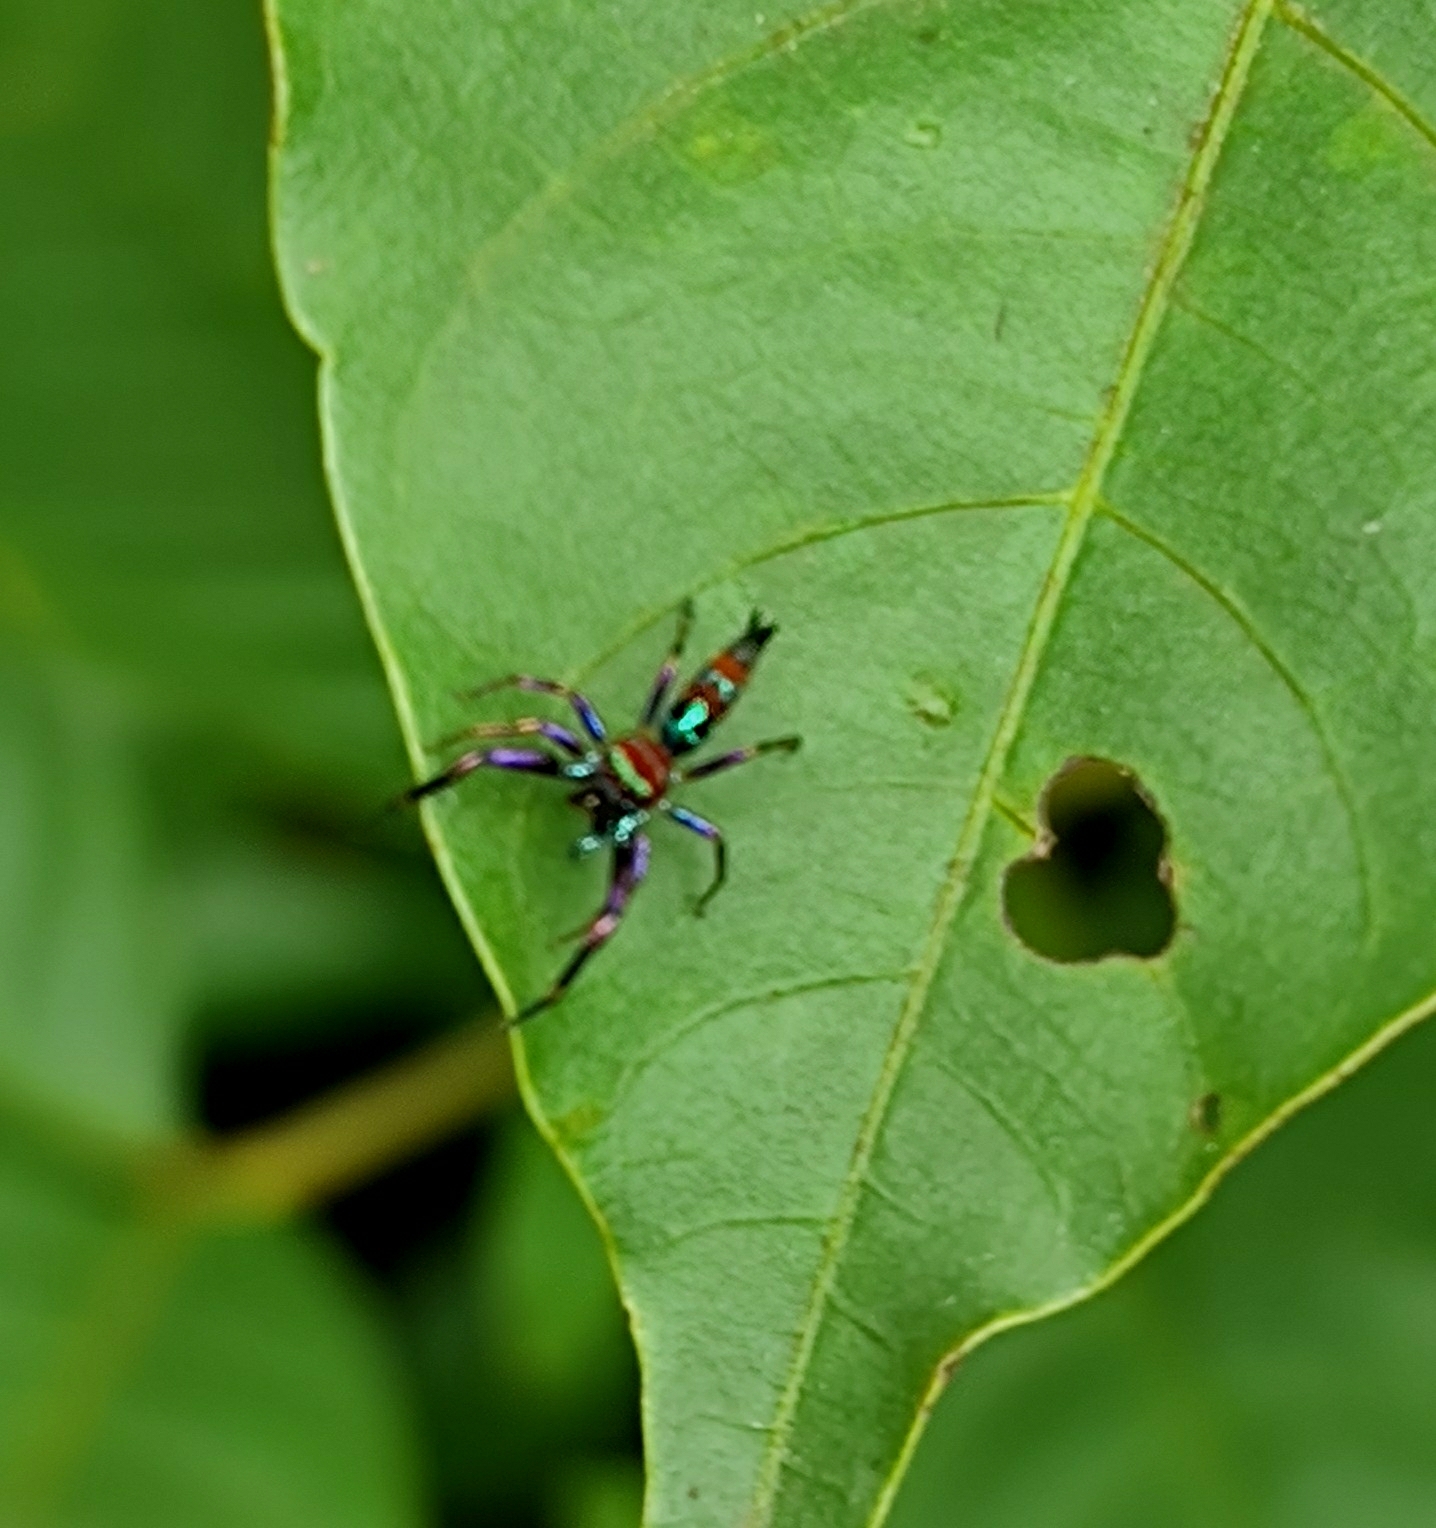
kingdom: Animalia
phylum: Arthropoda
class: Arachnida
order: Araneae
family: Salticidae
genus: Chrysilla
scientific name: Chrysilla volupe
